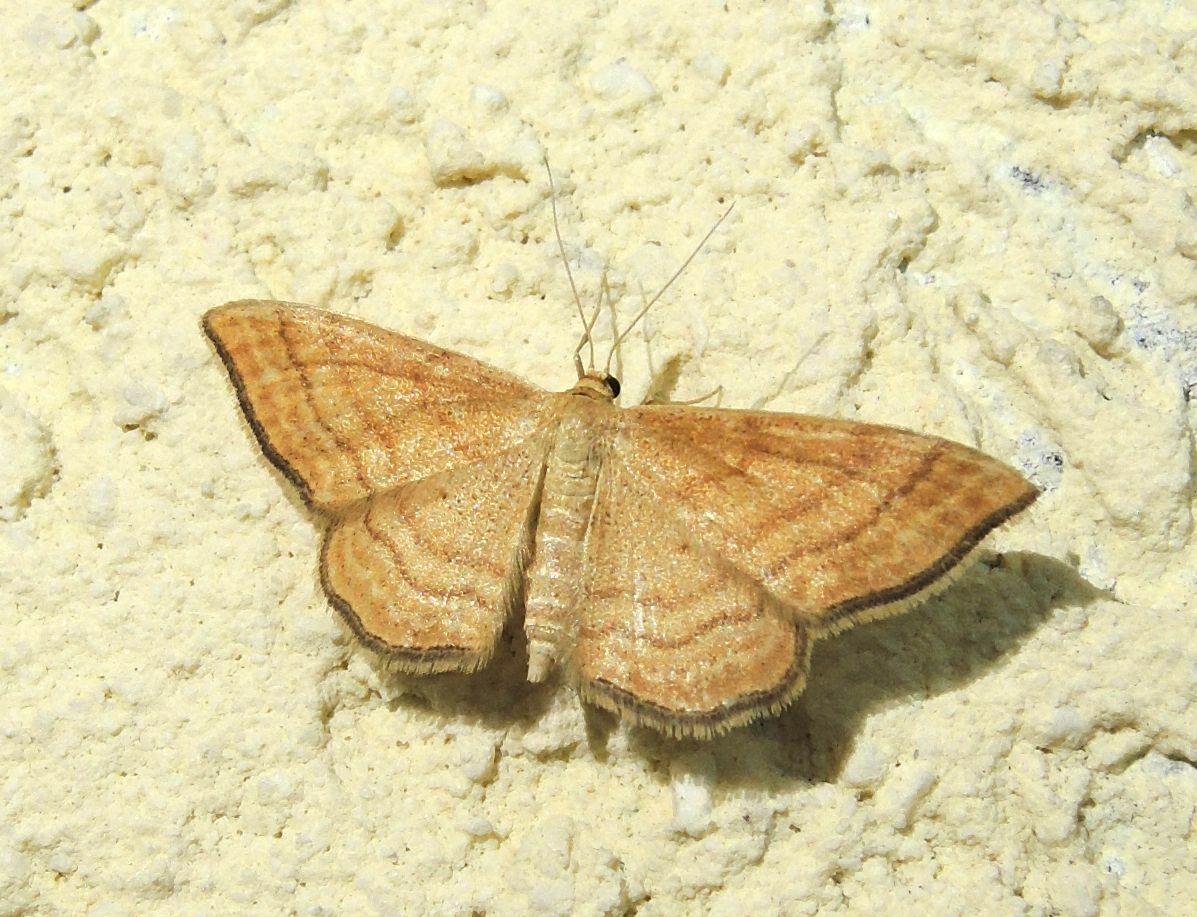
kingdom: Animalia
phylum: Arthropoda
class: Insecta
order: Lepidoptera
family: Geometridae
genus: Idaea
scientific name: Idaea ochrata
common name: Bright wave
